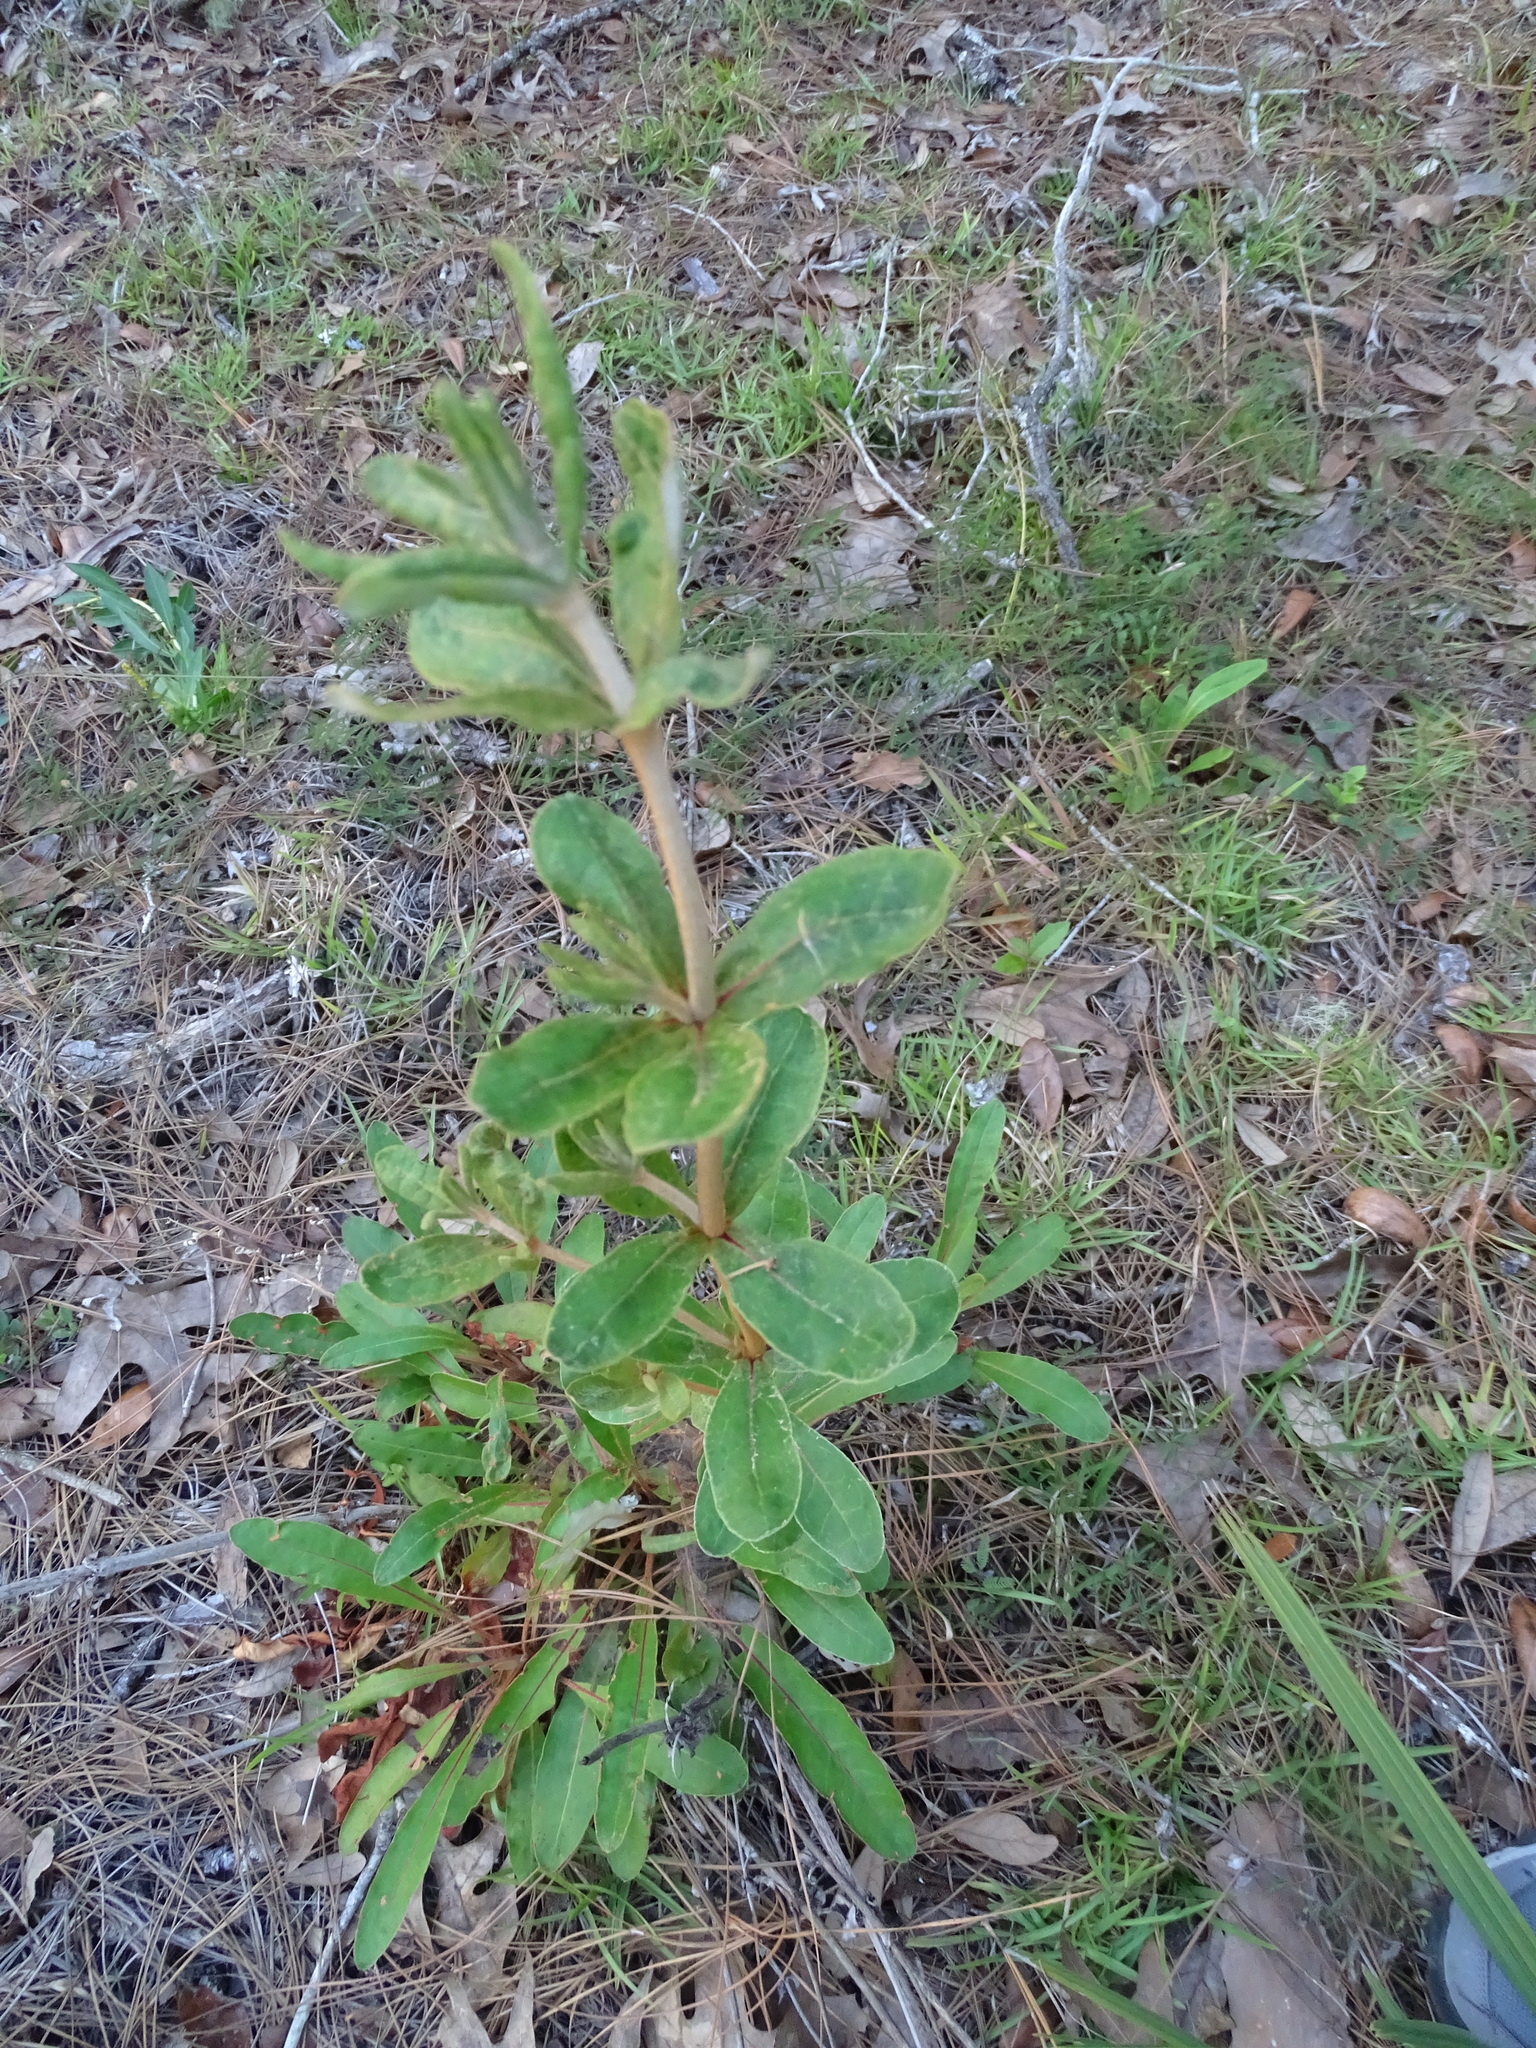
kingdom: Plantae
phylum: Tracheophyta
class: Magnoliopsida
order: Caryophyllales
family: Polygonaceae
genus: Eriogonum
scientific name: Eriogonum tomentosum
